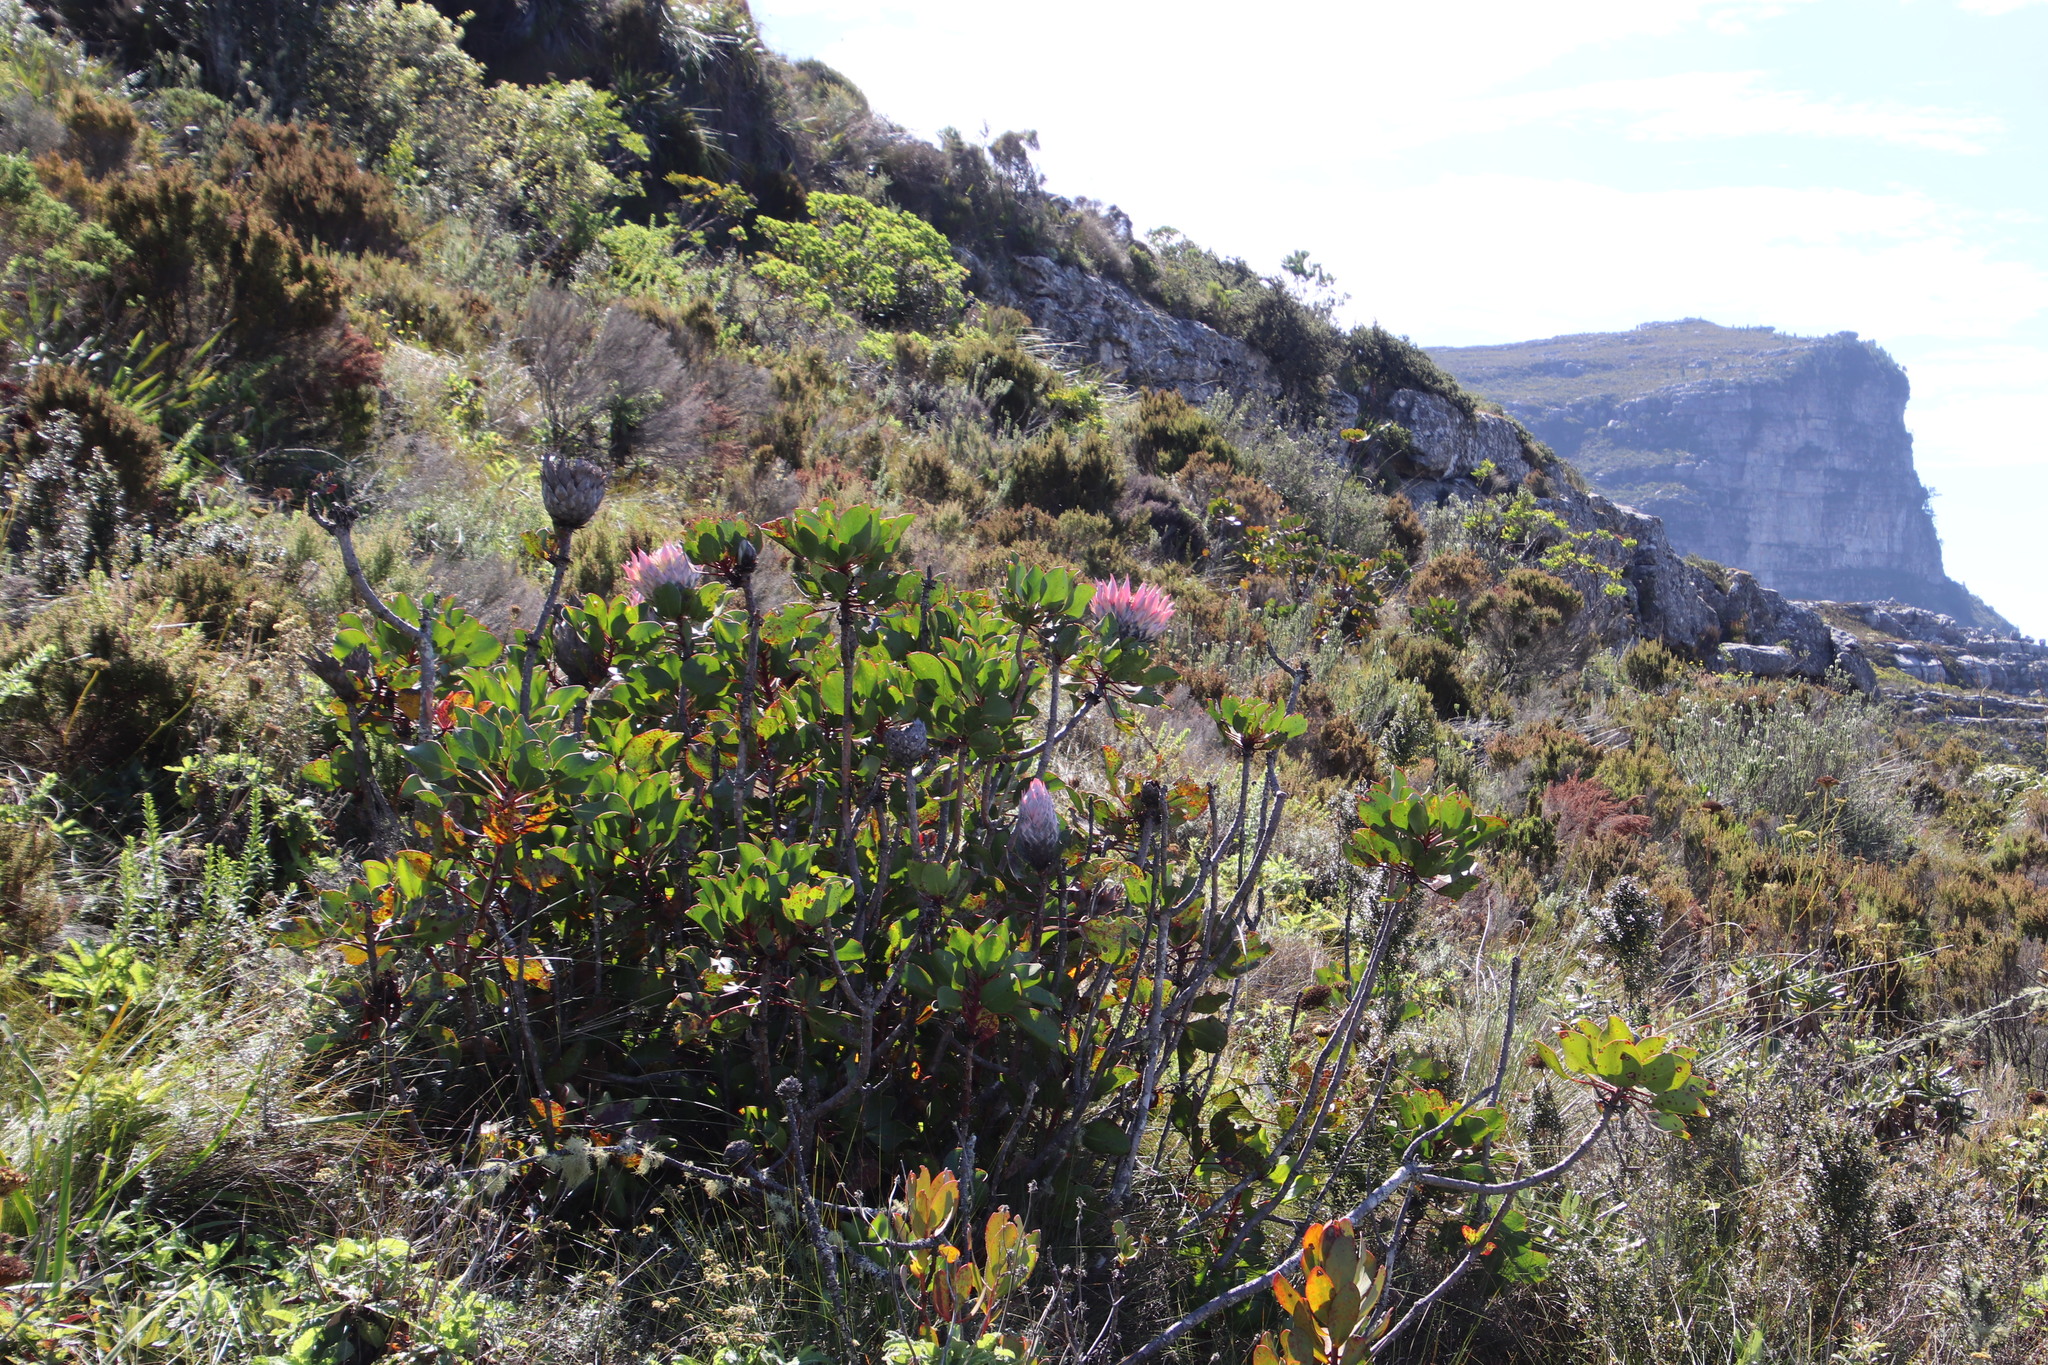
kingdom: Plantae
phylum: Tracheophyta
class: Magnoliopsida
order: Proteales
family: Proteaceae
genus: Protea
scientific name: Protea cynaroides
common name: King protea
